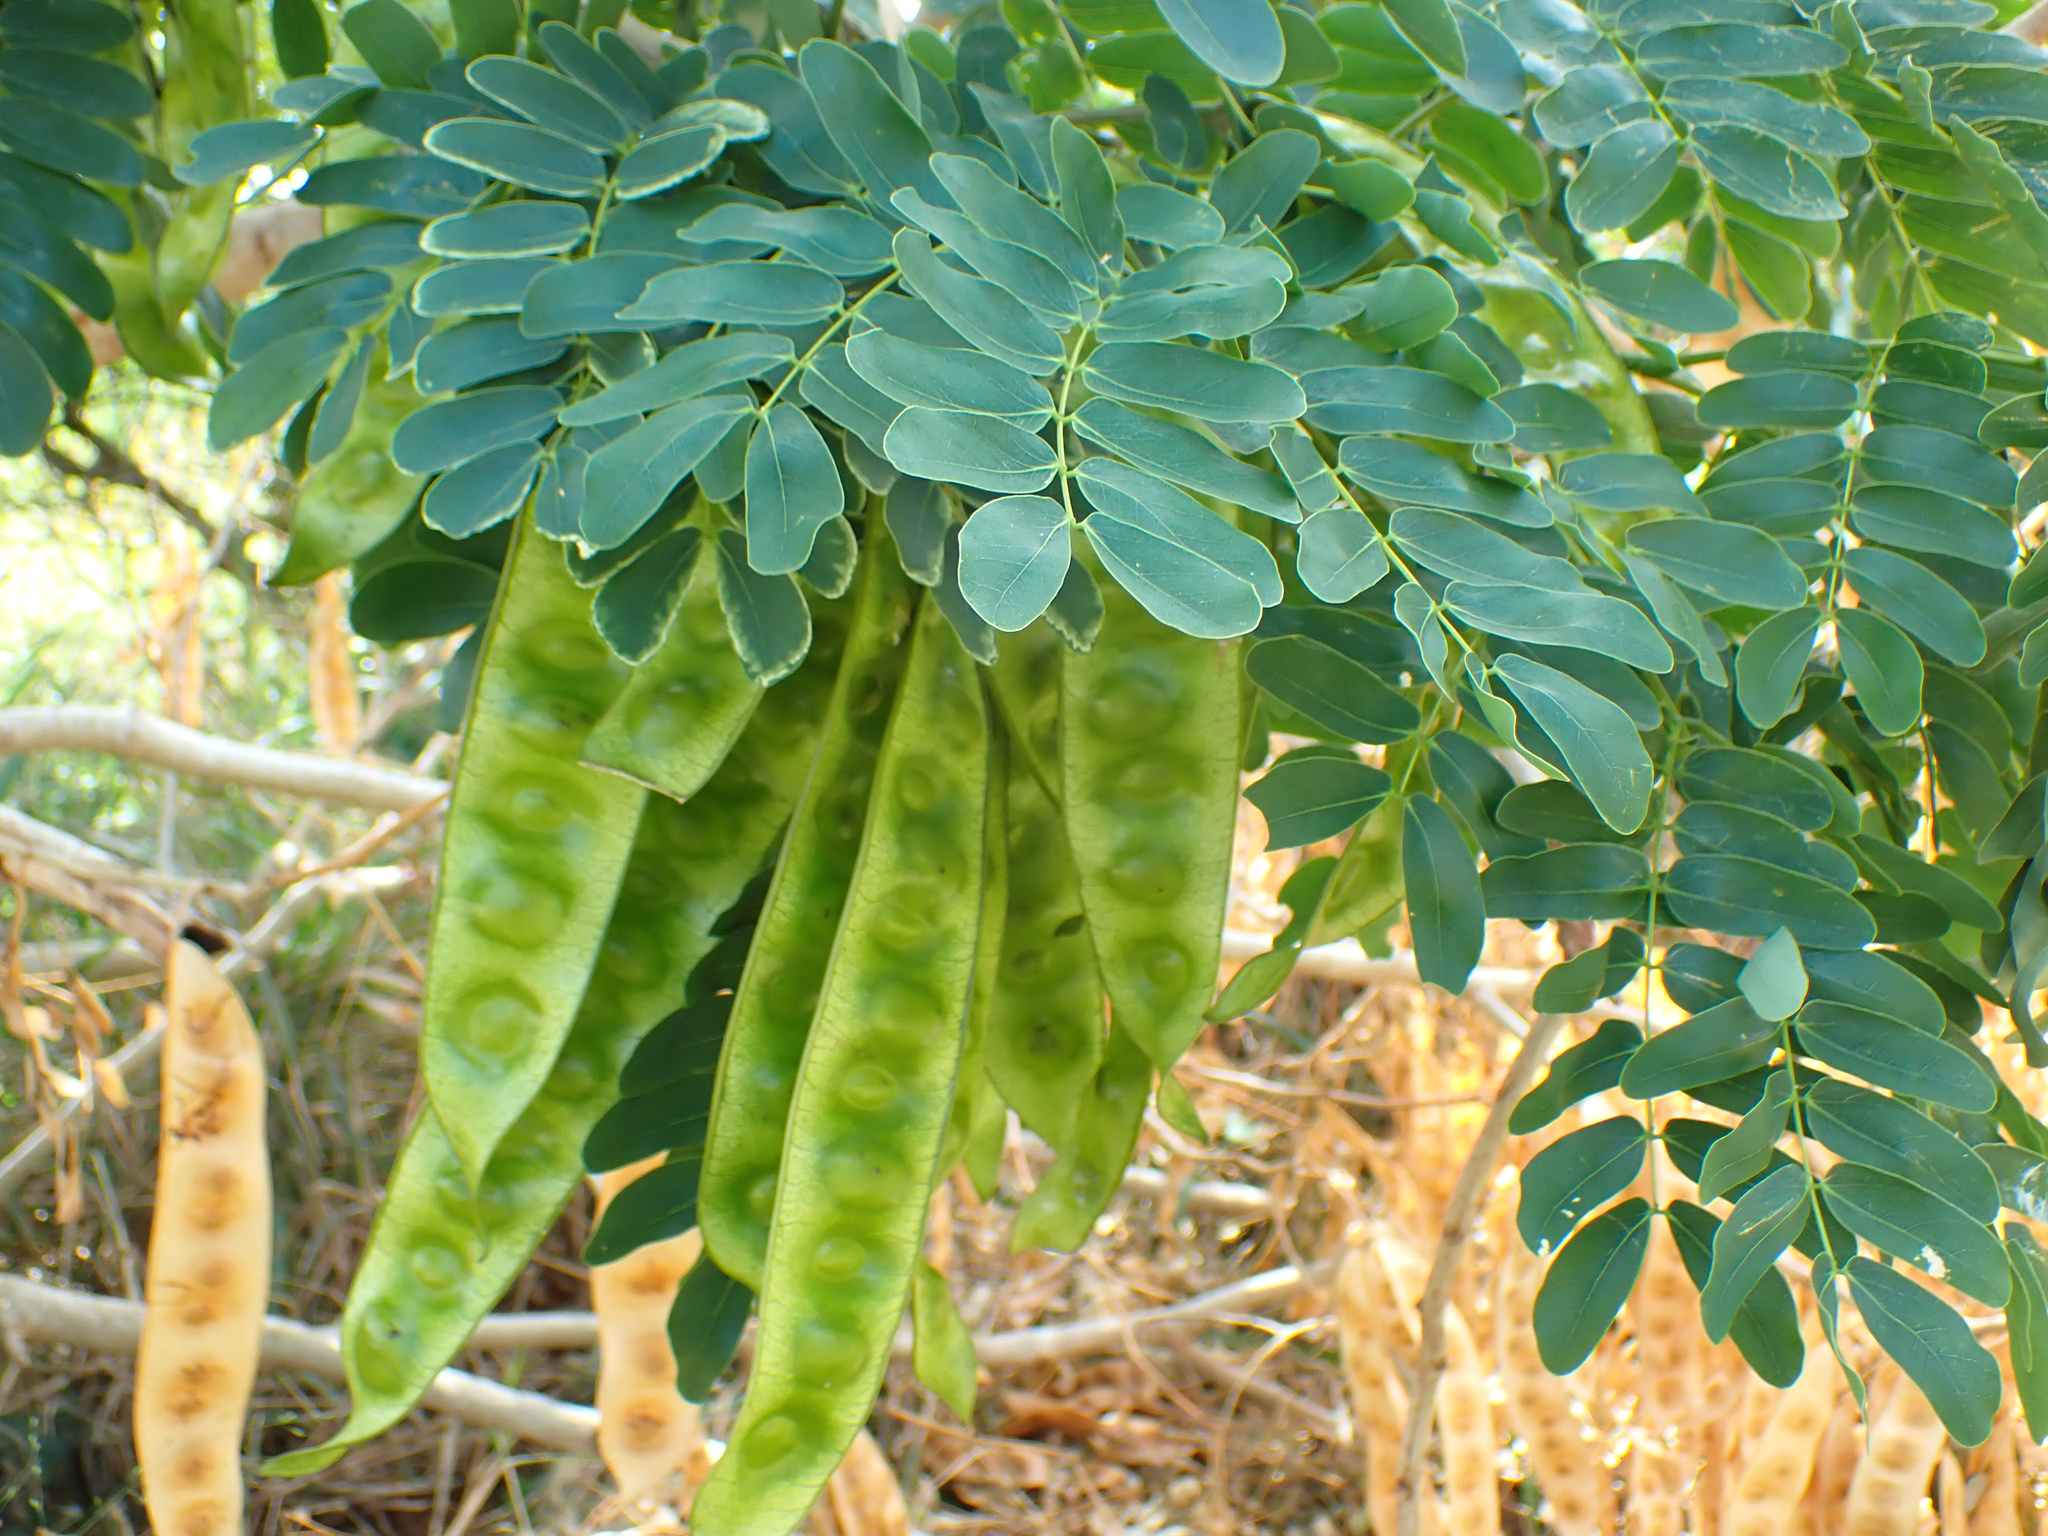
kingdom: Plantae
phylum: Tracheophyta
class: Magnoliopsida
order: Fabales
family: Fabaceae
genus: Albizia
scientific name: Albizia lebbeck
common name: Woman's tongue
